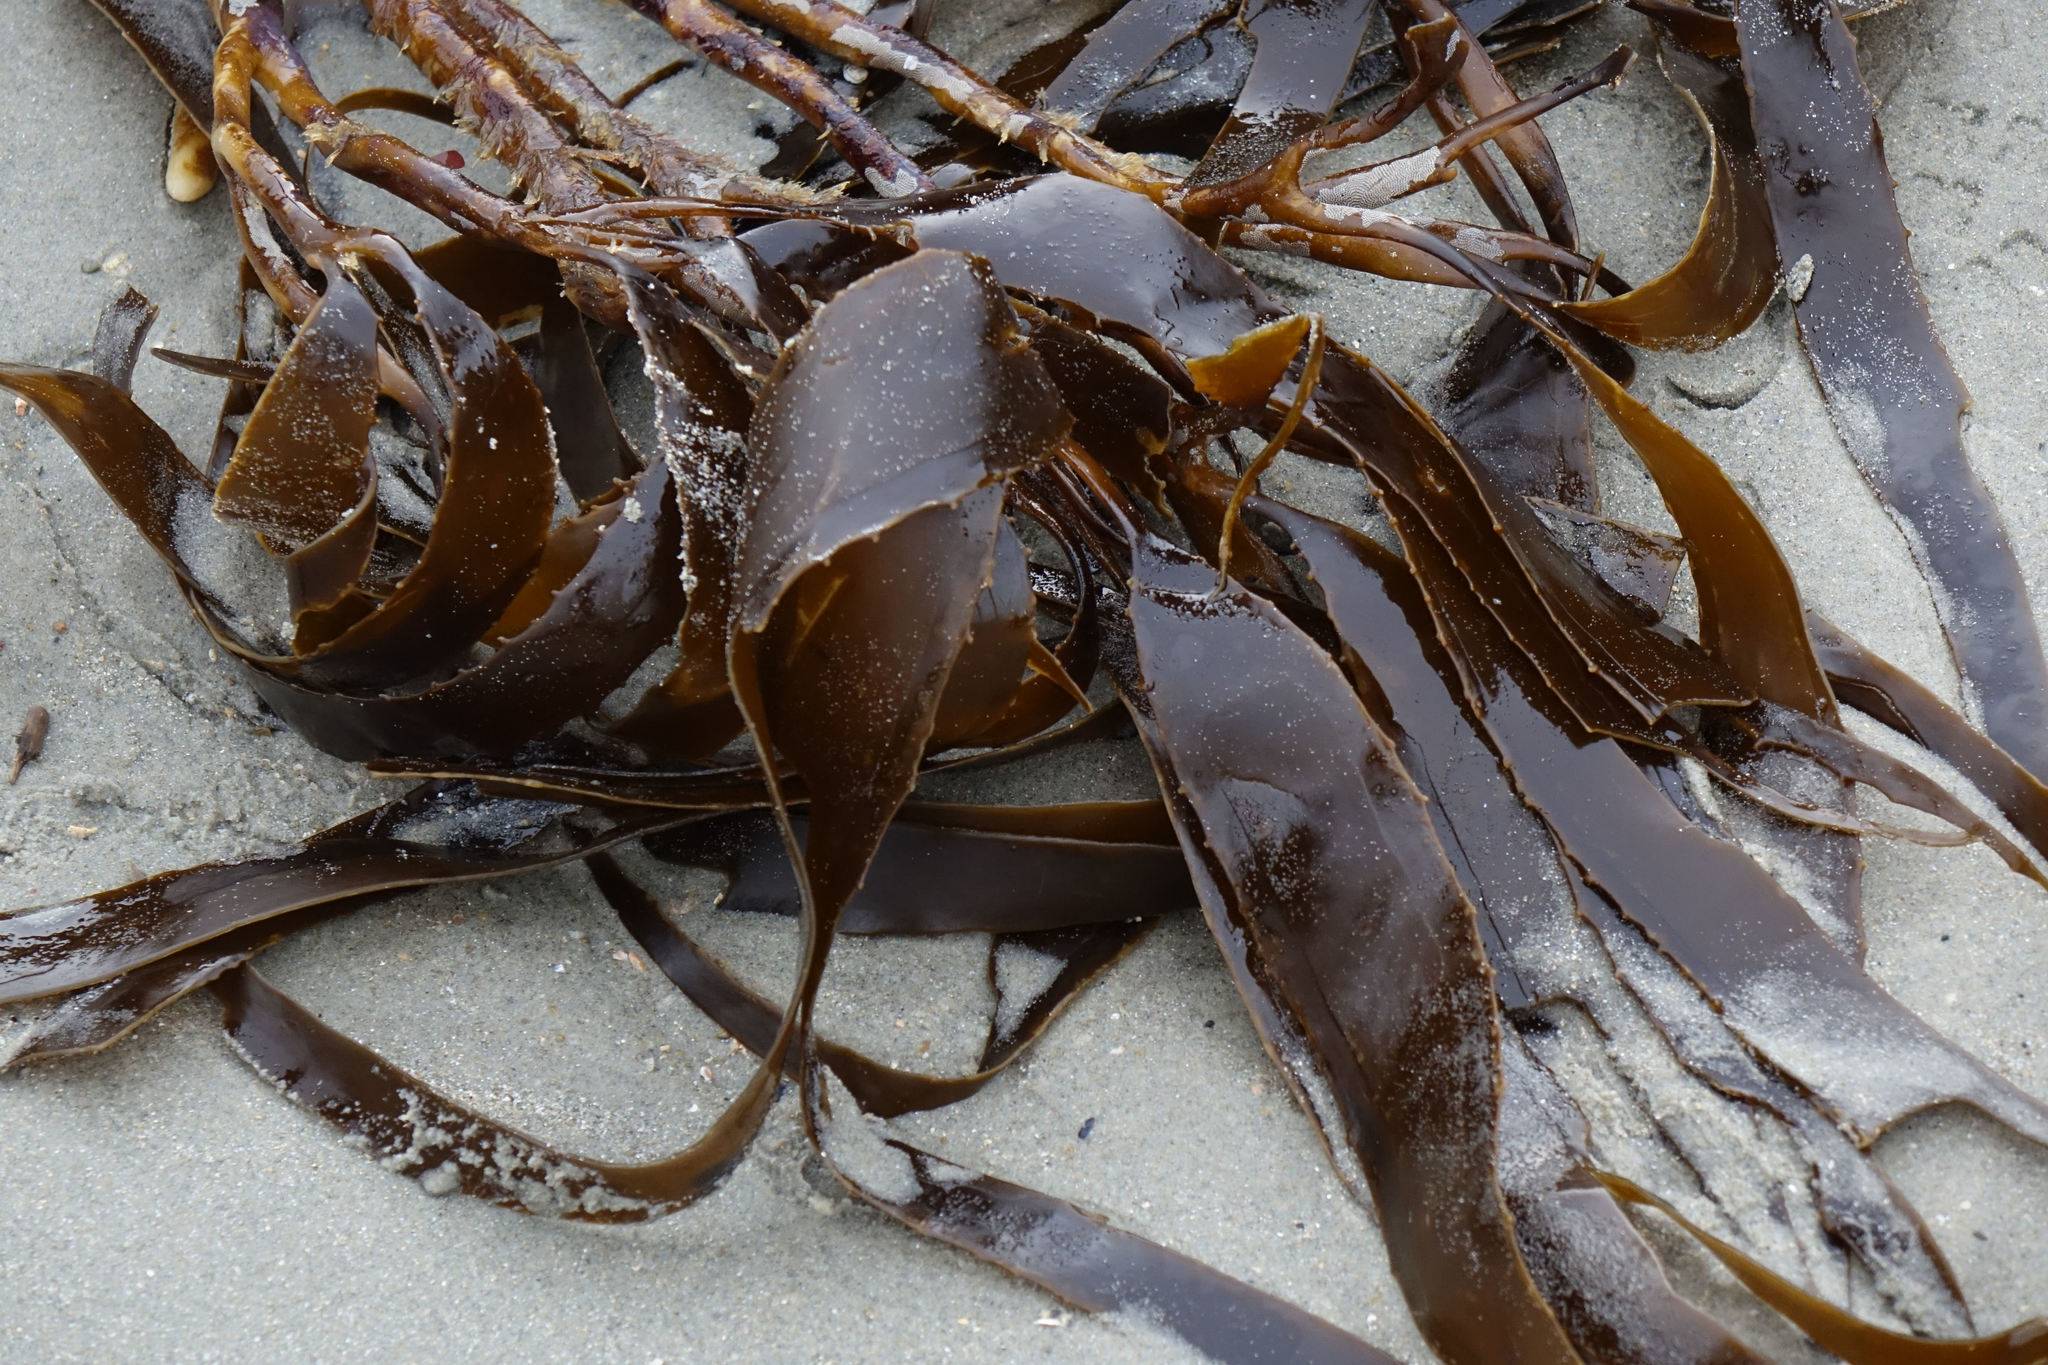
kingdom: Chromista
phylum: Ochrophyta
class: Phaeophyceae
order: Laminariales
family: Lessoniaceae
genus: Lessonia
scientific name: Lessonia
